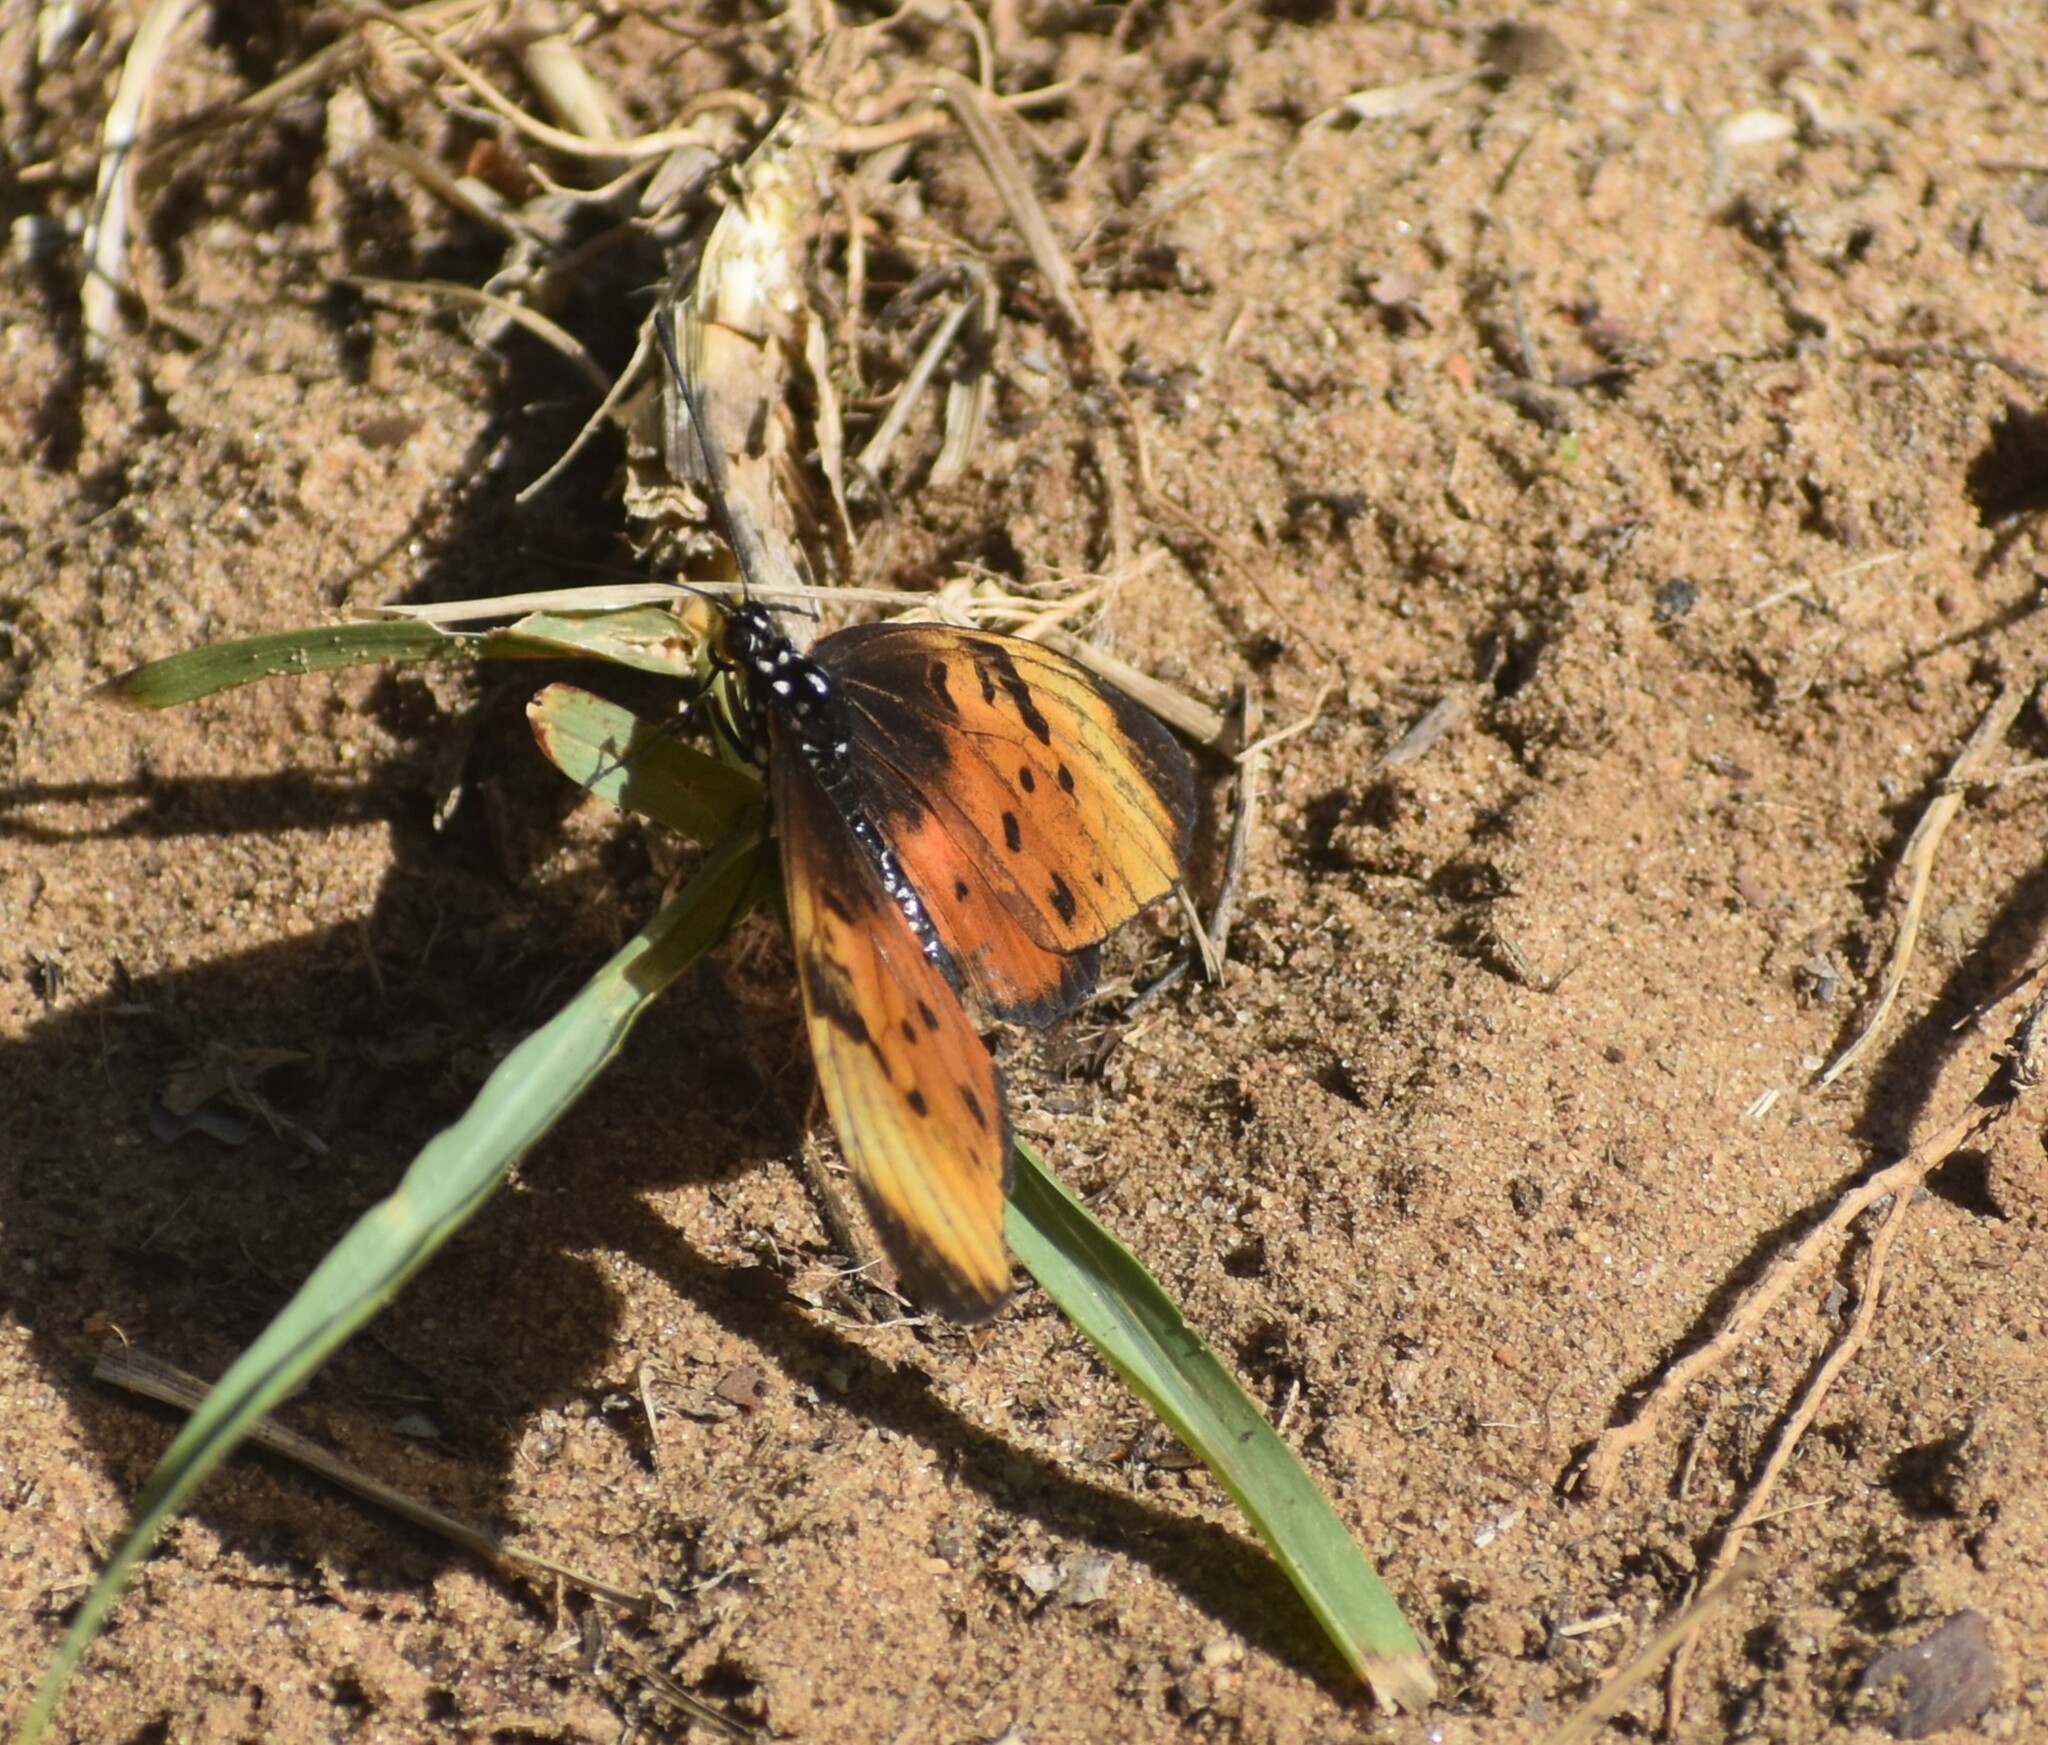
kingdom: Animalia
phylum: Arthropoda
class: Insecta
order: Lepidoptera
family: Nymphalidae
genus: Stephenia
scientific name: Stephenia
